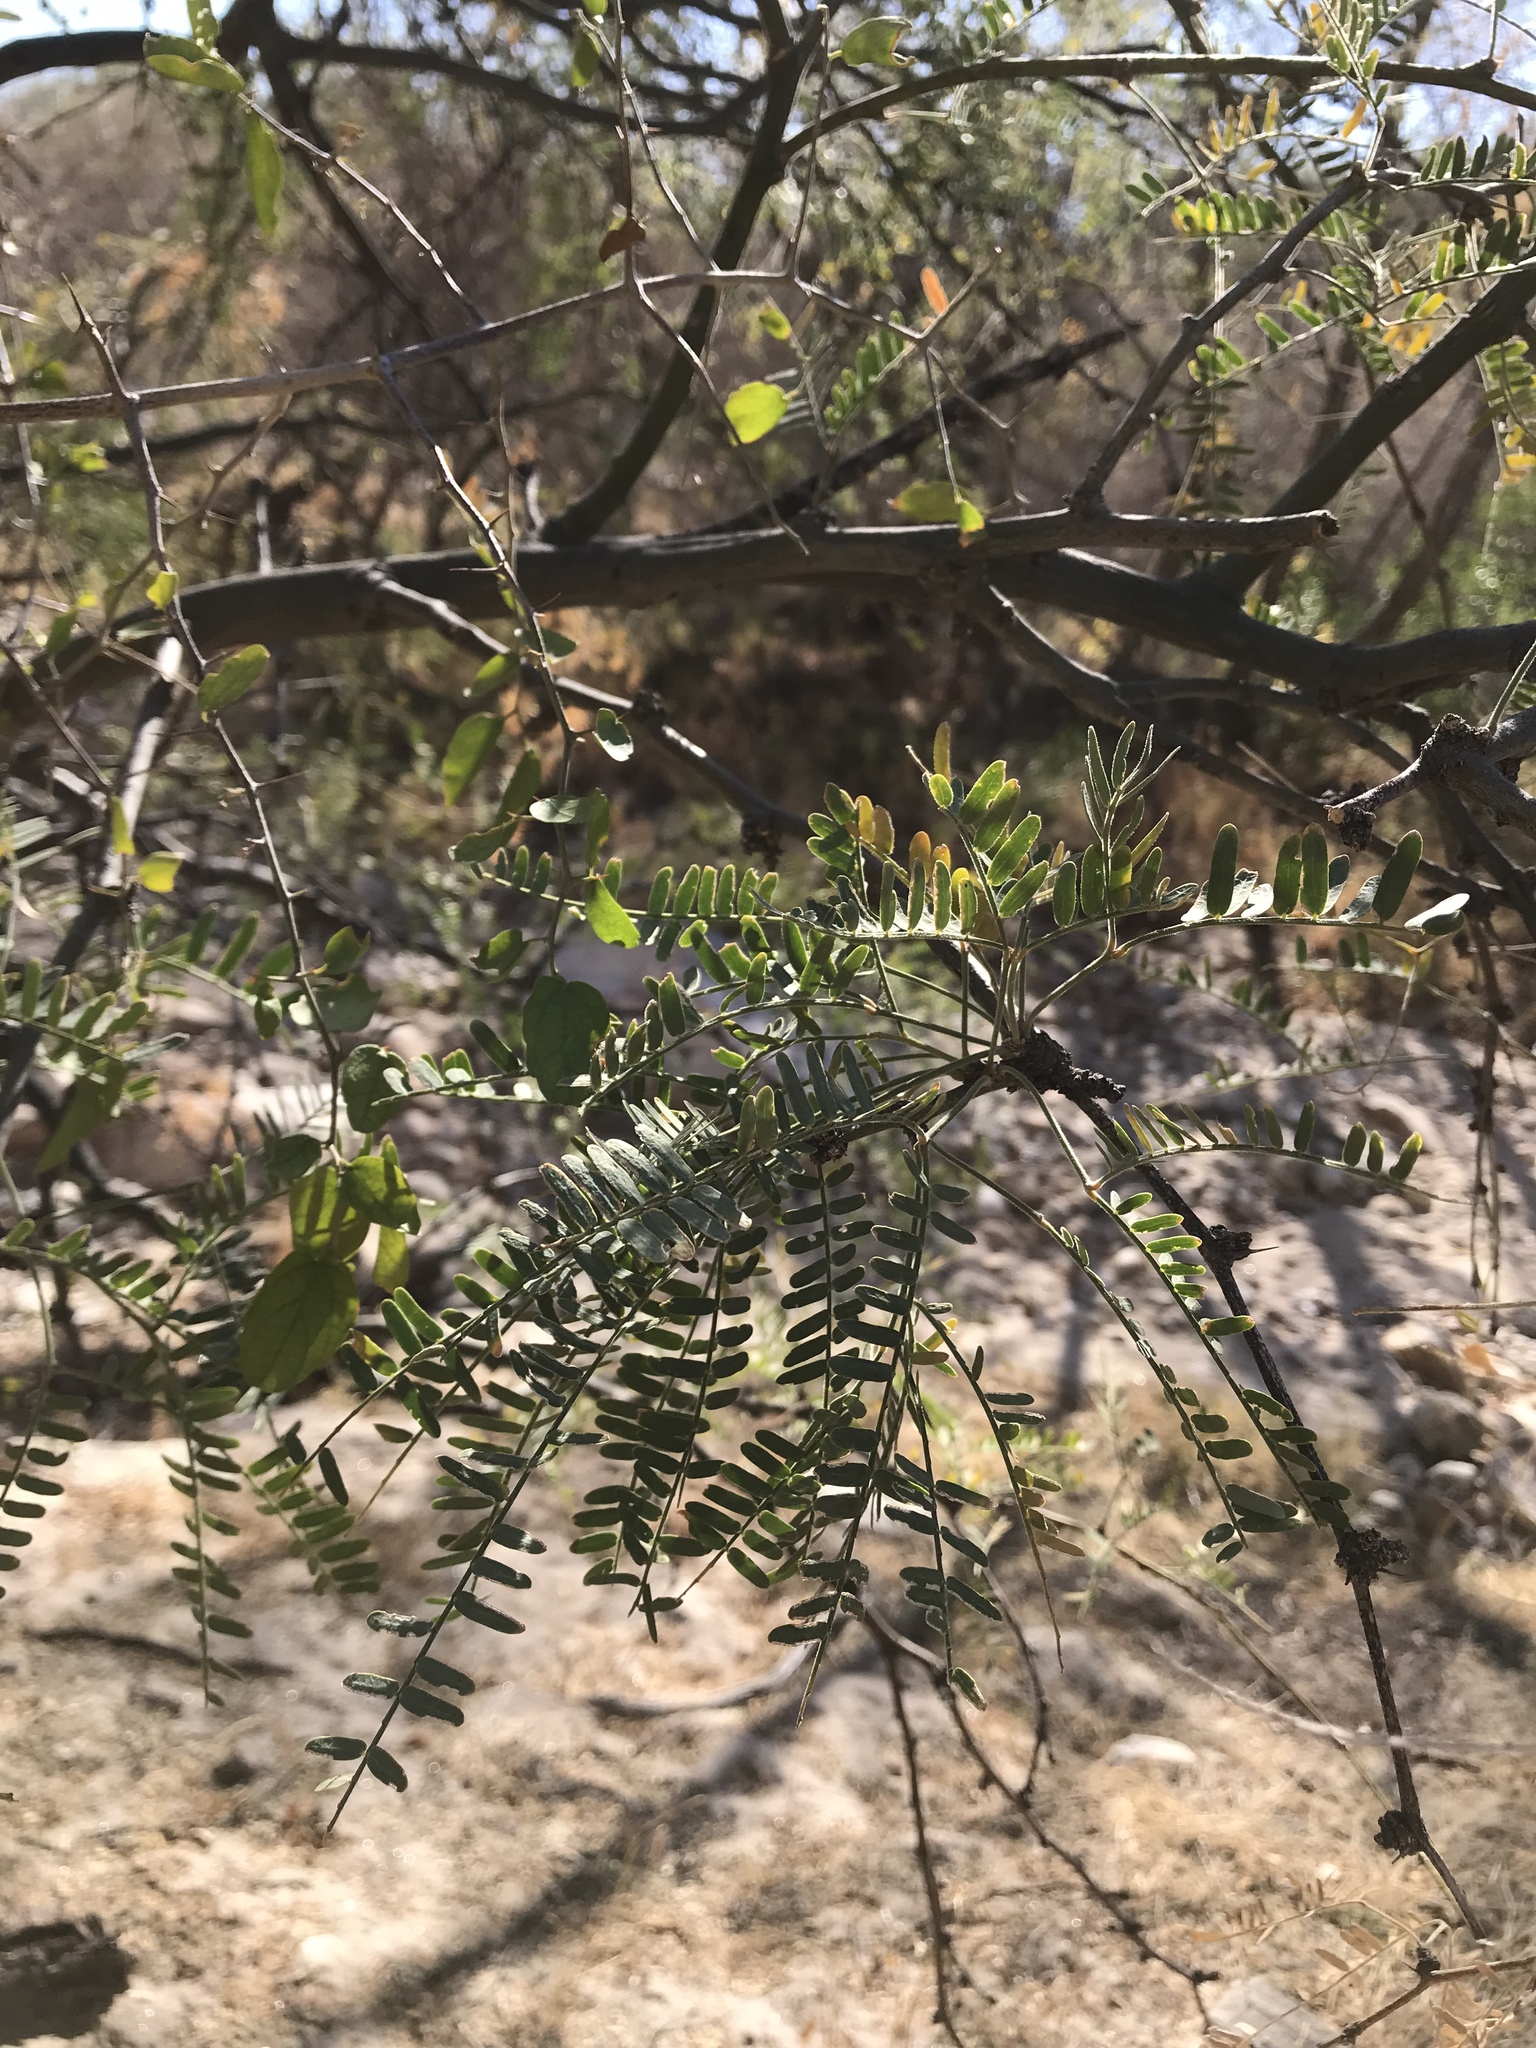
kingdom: Plantae
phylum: Tracheophyta
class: Magnoliopsida
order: Fabales
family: Fabaceae
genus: Prosopis
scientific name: Prosopis velutina
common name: Velvet mesquite
